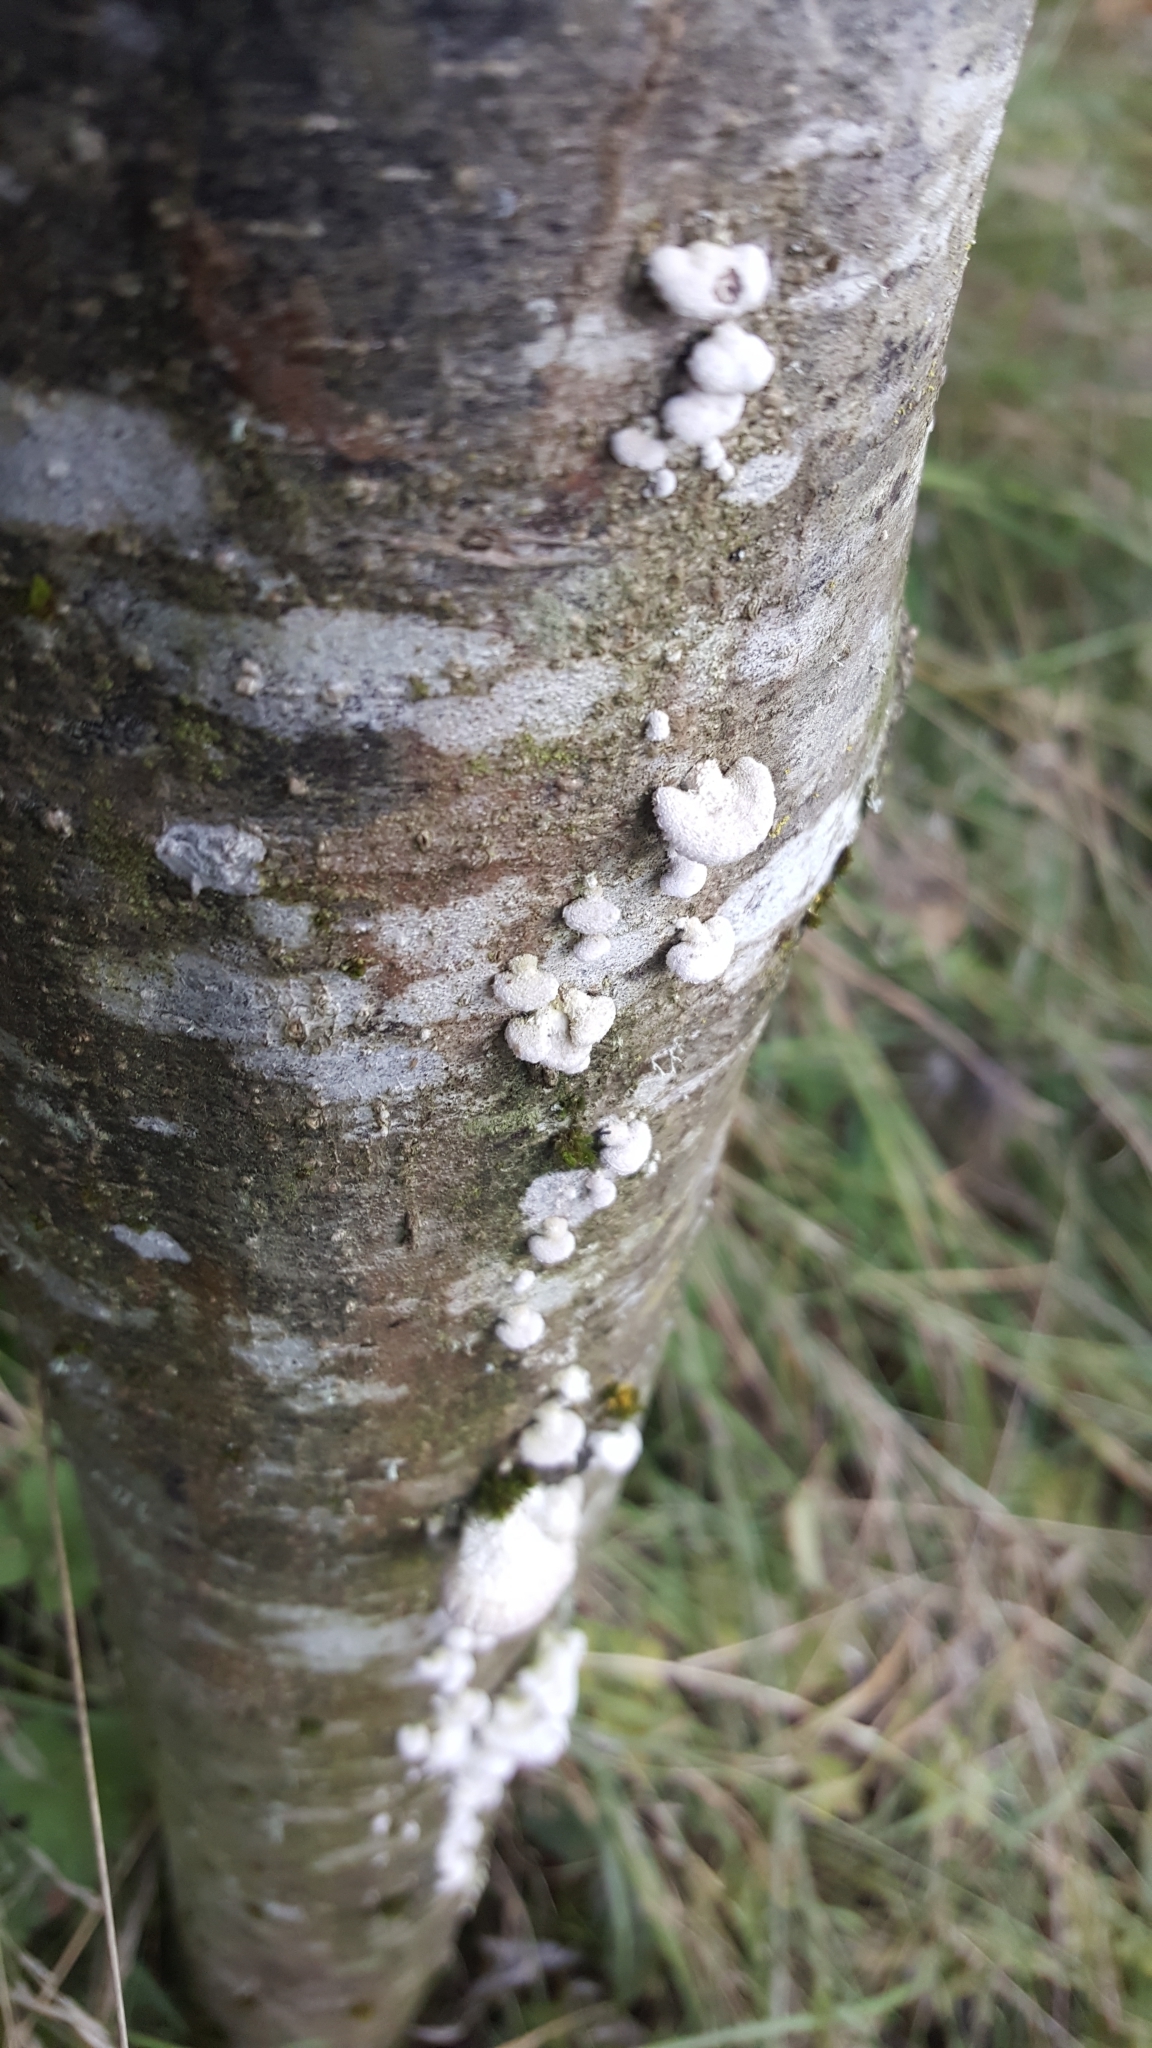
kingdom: Fungi
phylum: Basidiomycota
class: Agaricomycetes
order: Agaricales
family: Schizophyllaceae
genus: Schizophyllum
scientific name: Schizophyllum commune
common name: Common porecrust
